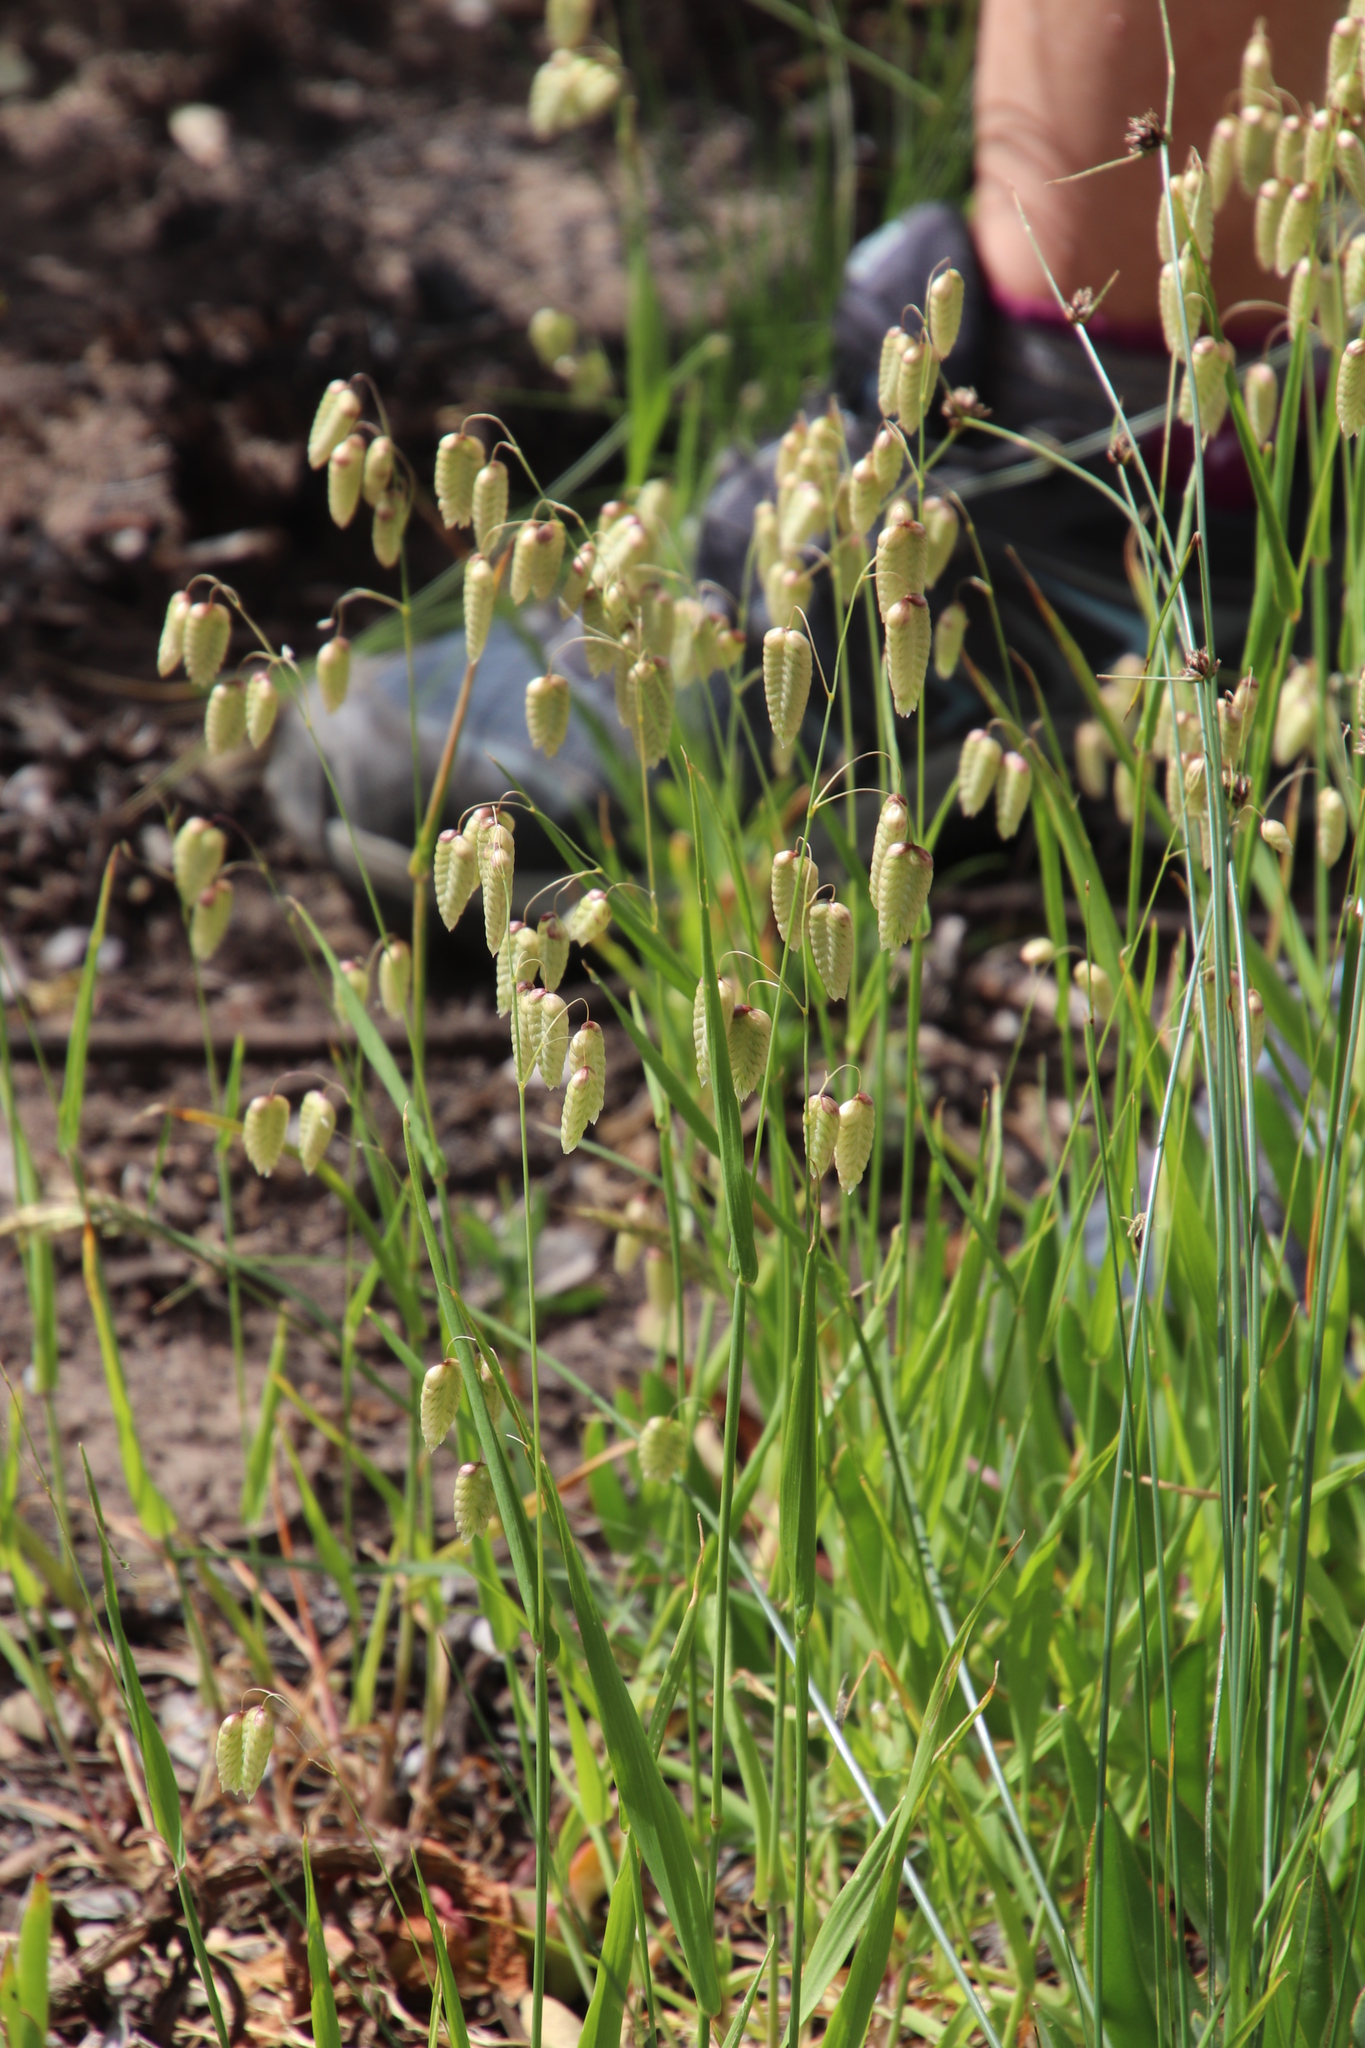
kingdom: Plantae
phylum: Tracheophyta
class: Liliopsida
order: Poales
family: Poaceae
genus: Briza
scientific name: Briza maxima
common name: Big quakinggrass
